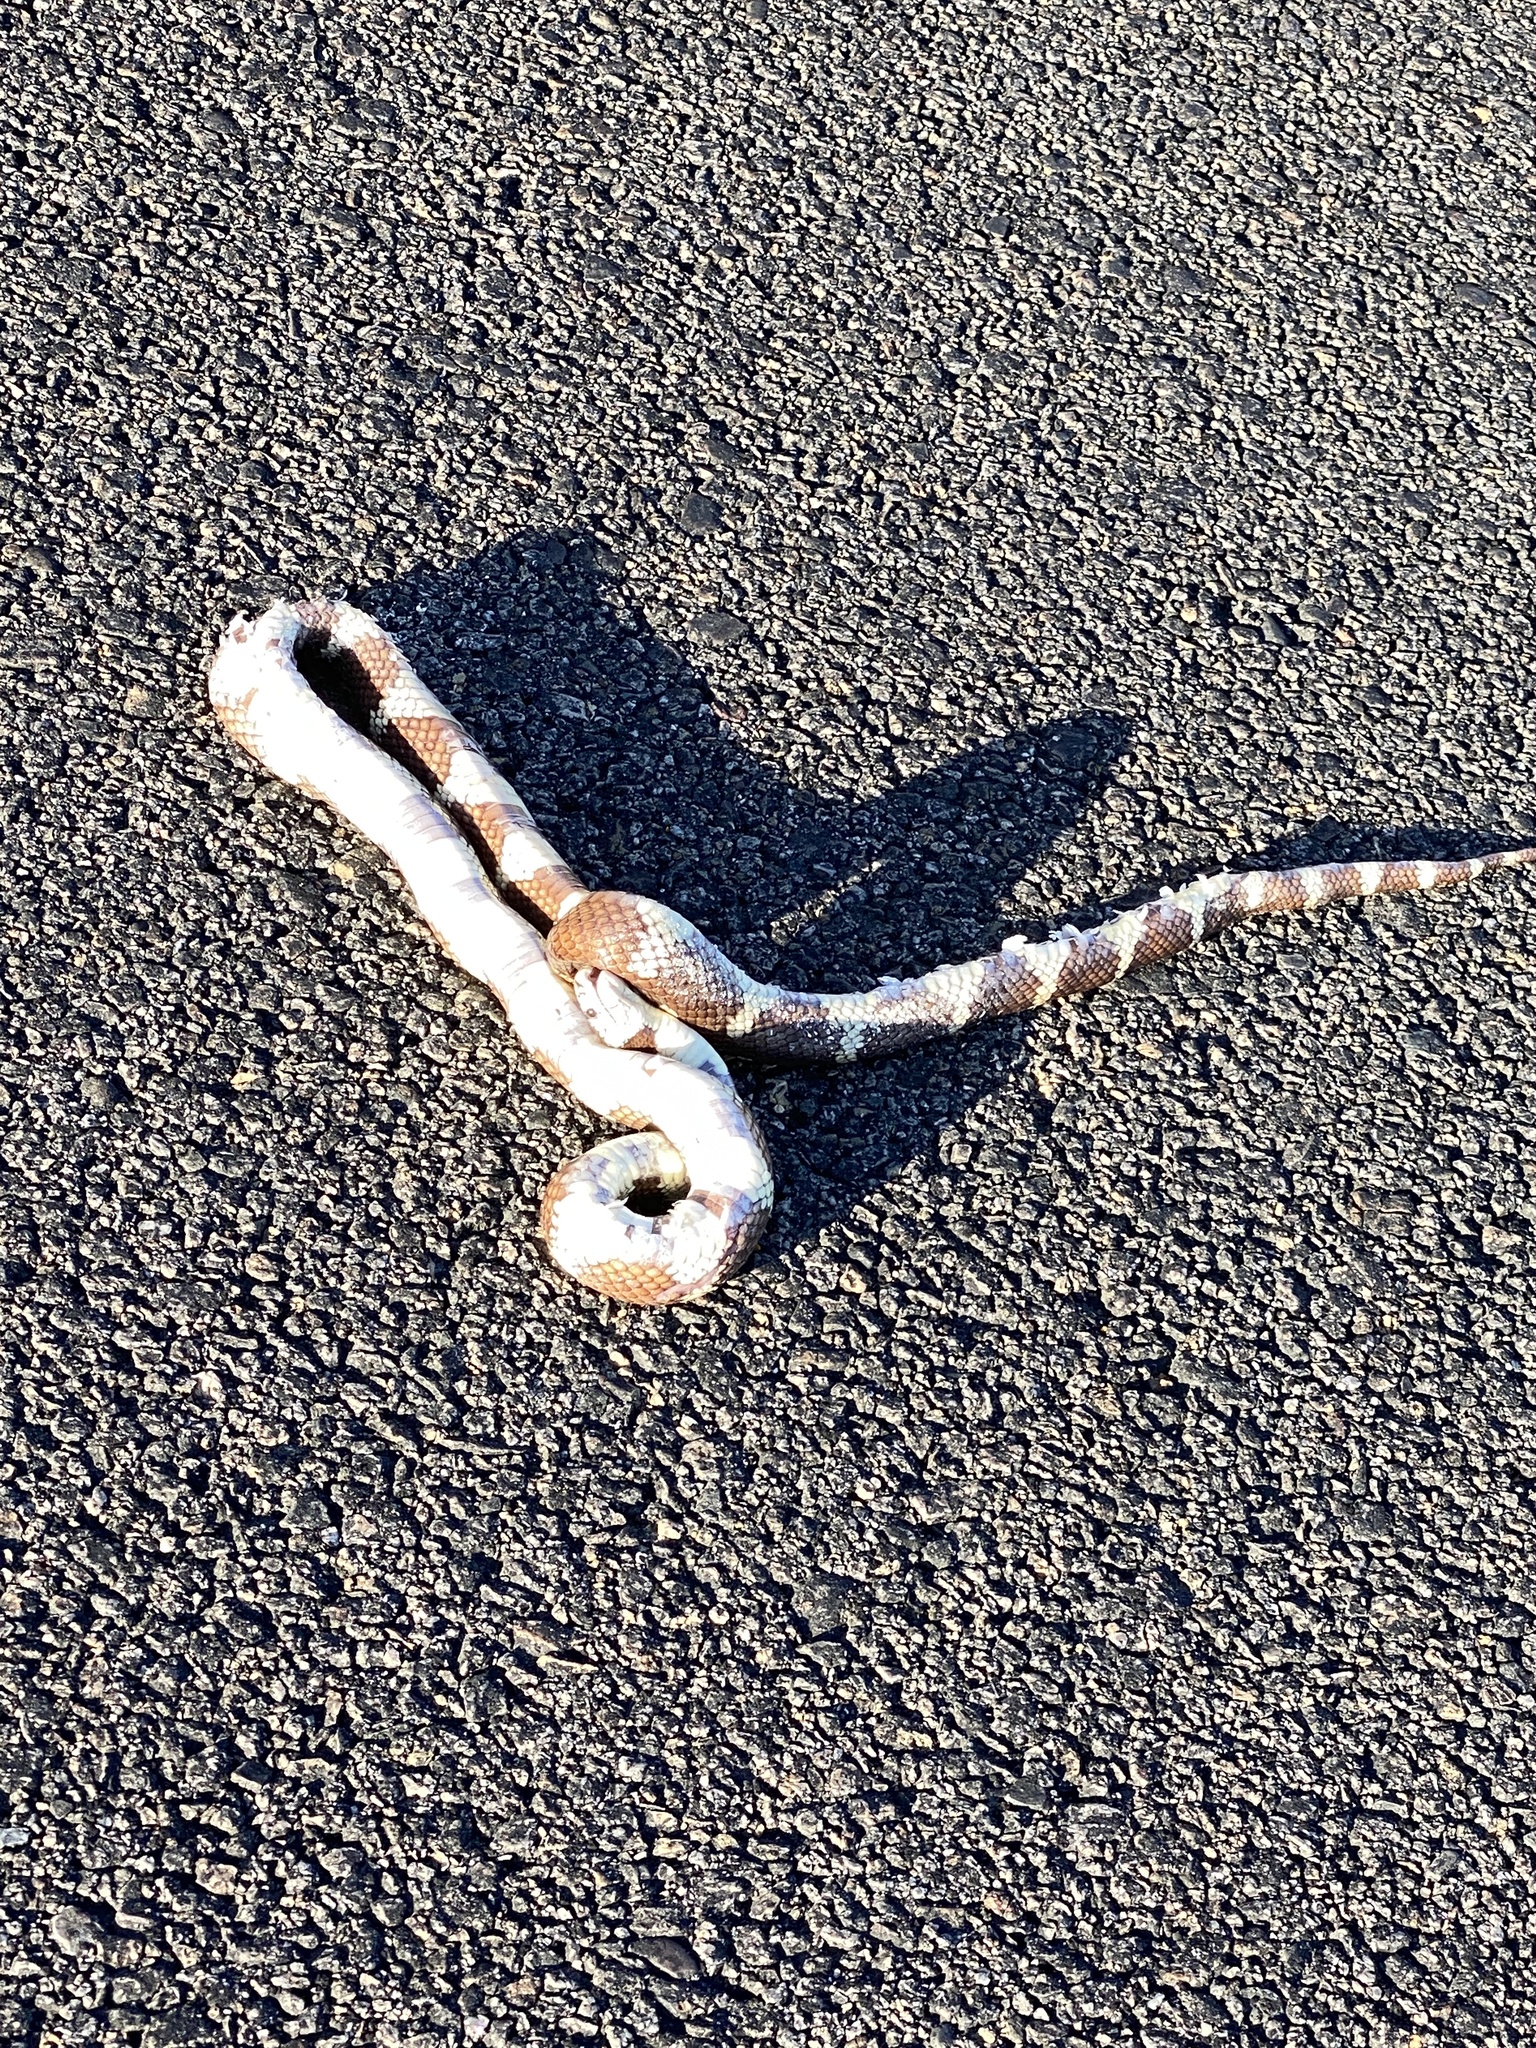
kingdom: Animalia
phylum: Chordata
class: Squamata
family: Colubridae
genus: Lampropeltis
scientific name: Lampropeltis californiae
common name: California kingsnake
